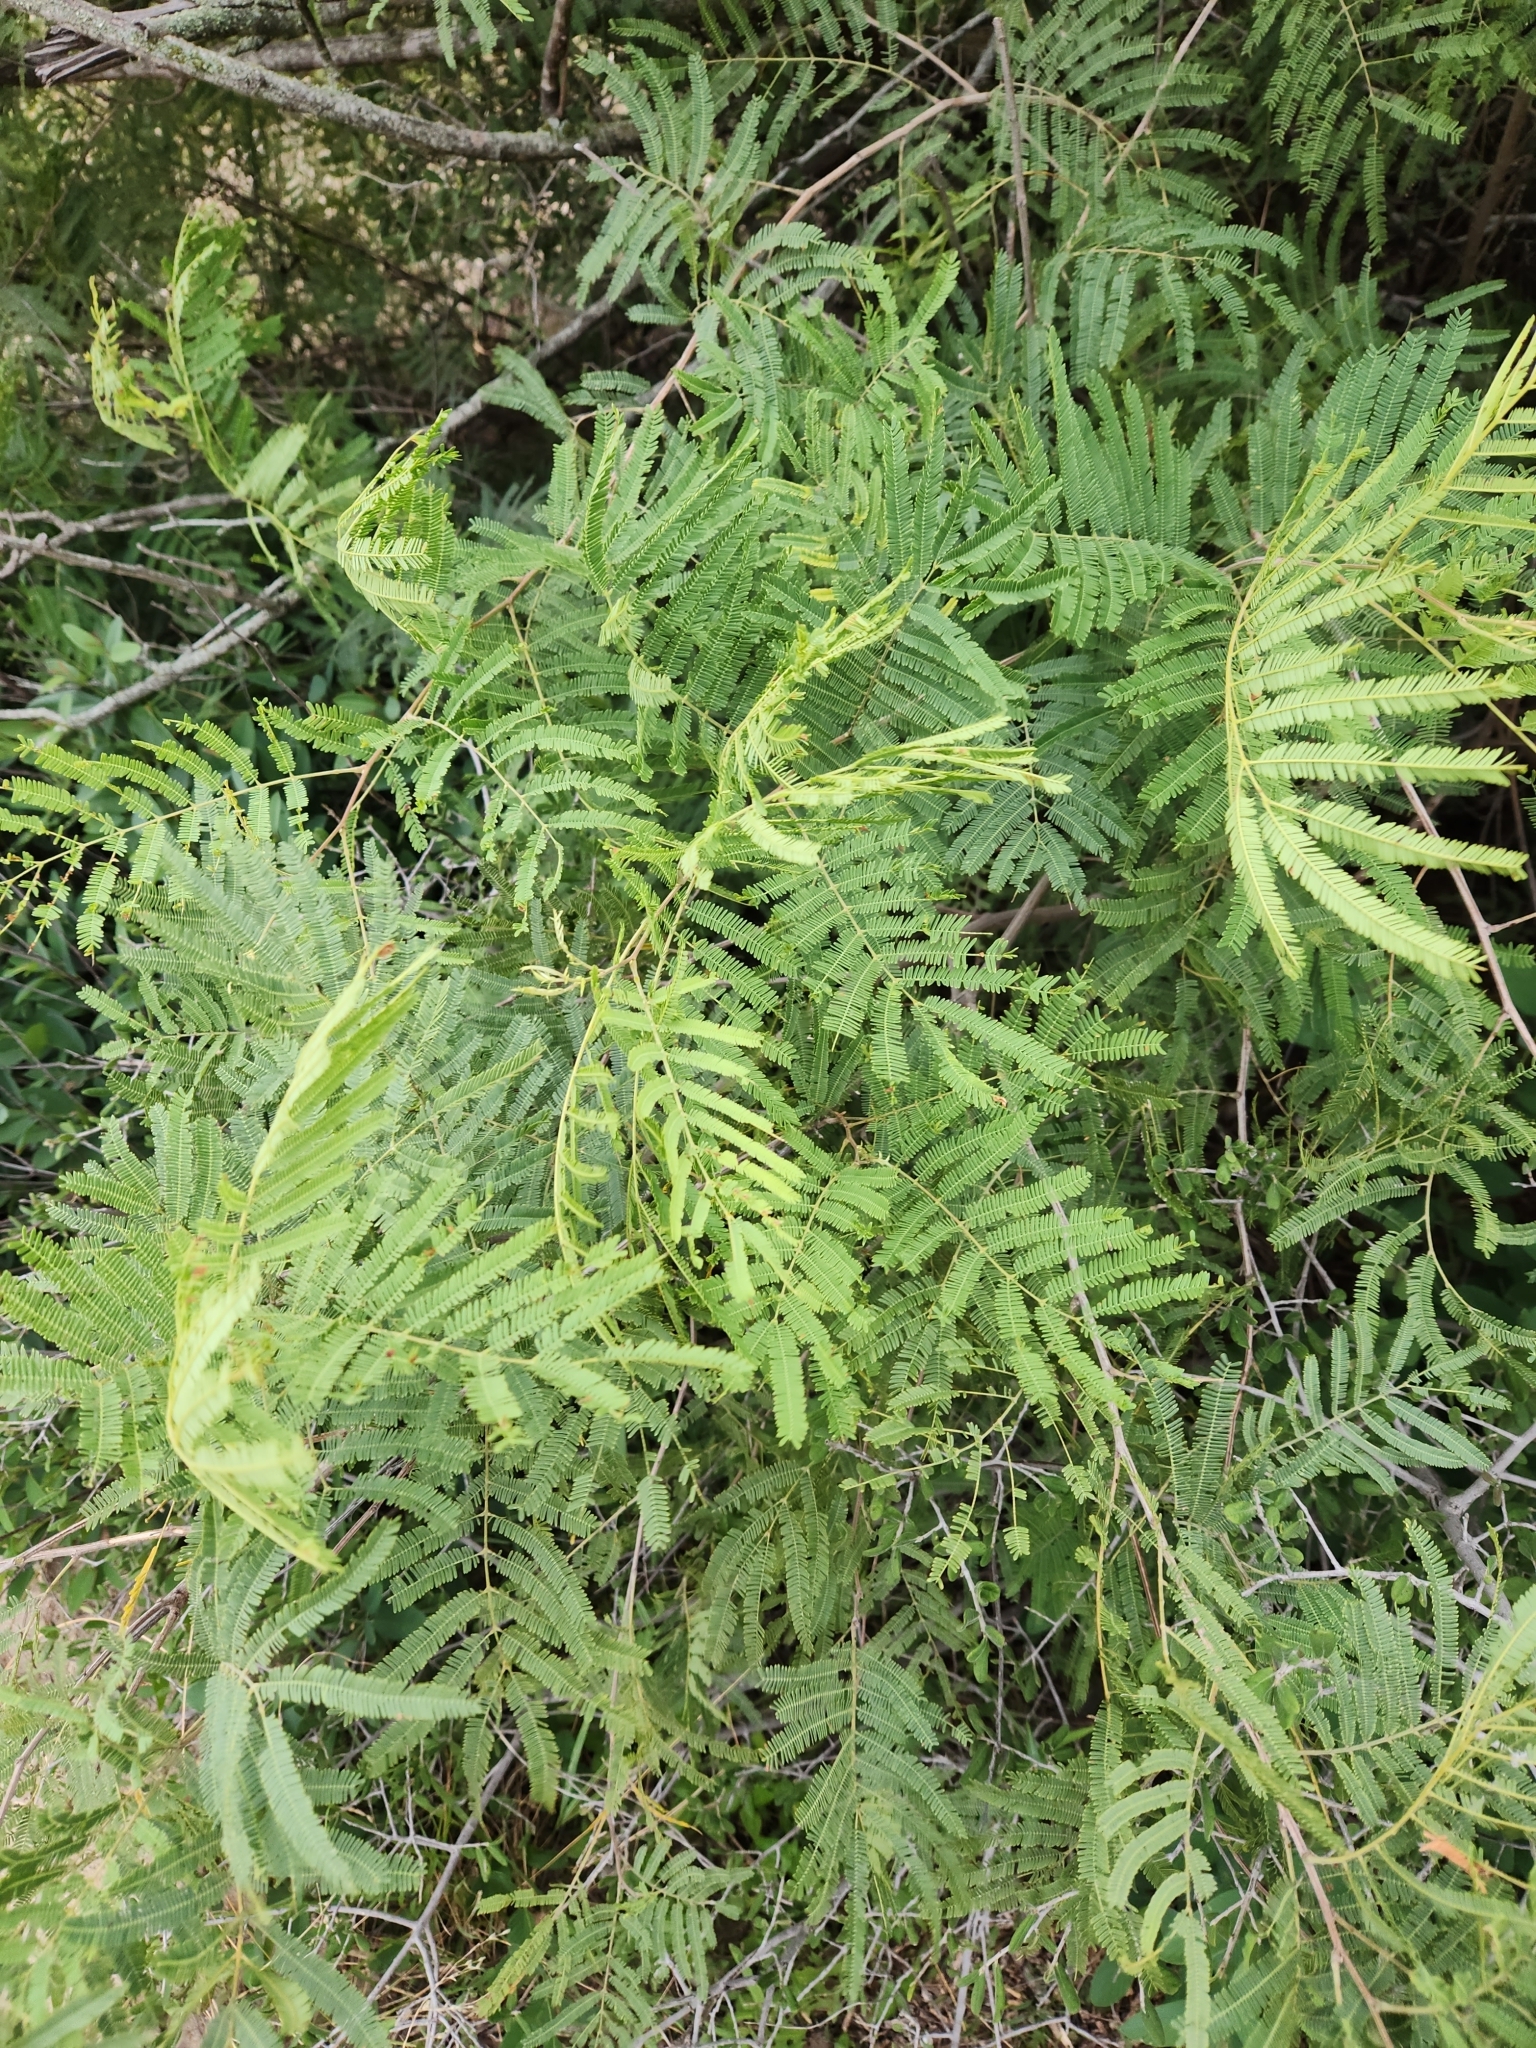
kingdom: Plantae
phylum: Tracheophyta
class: Magnoliopsida
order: Fabales
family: Fabaceae
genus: Senegalia
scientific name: Senegalia berlandieri
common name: Berlandier acacia
